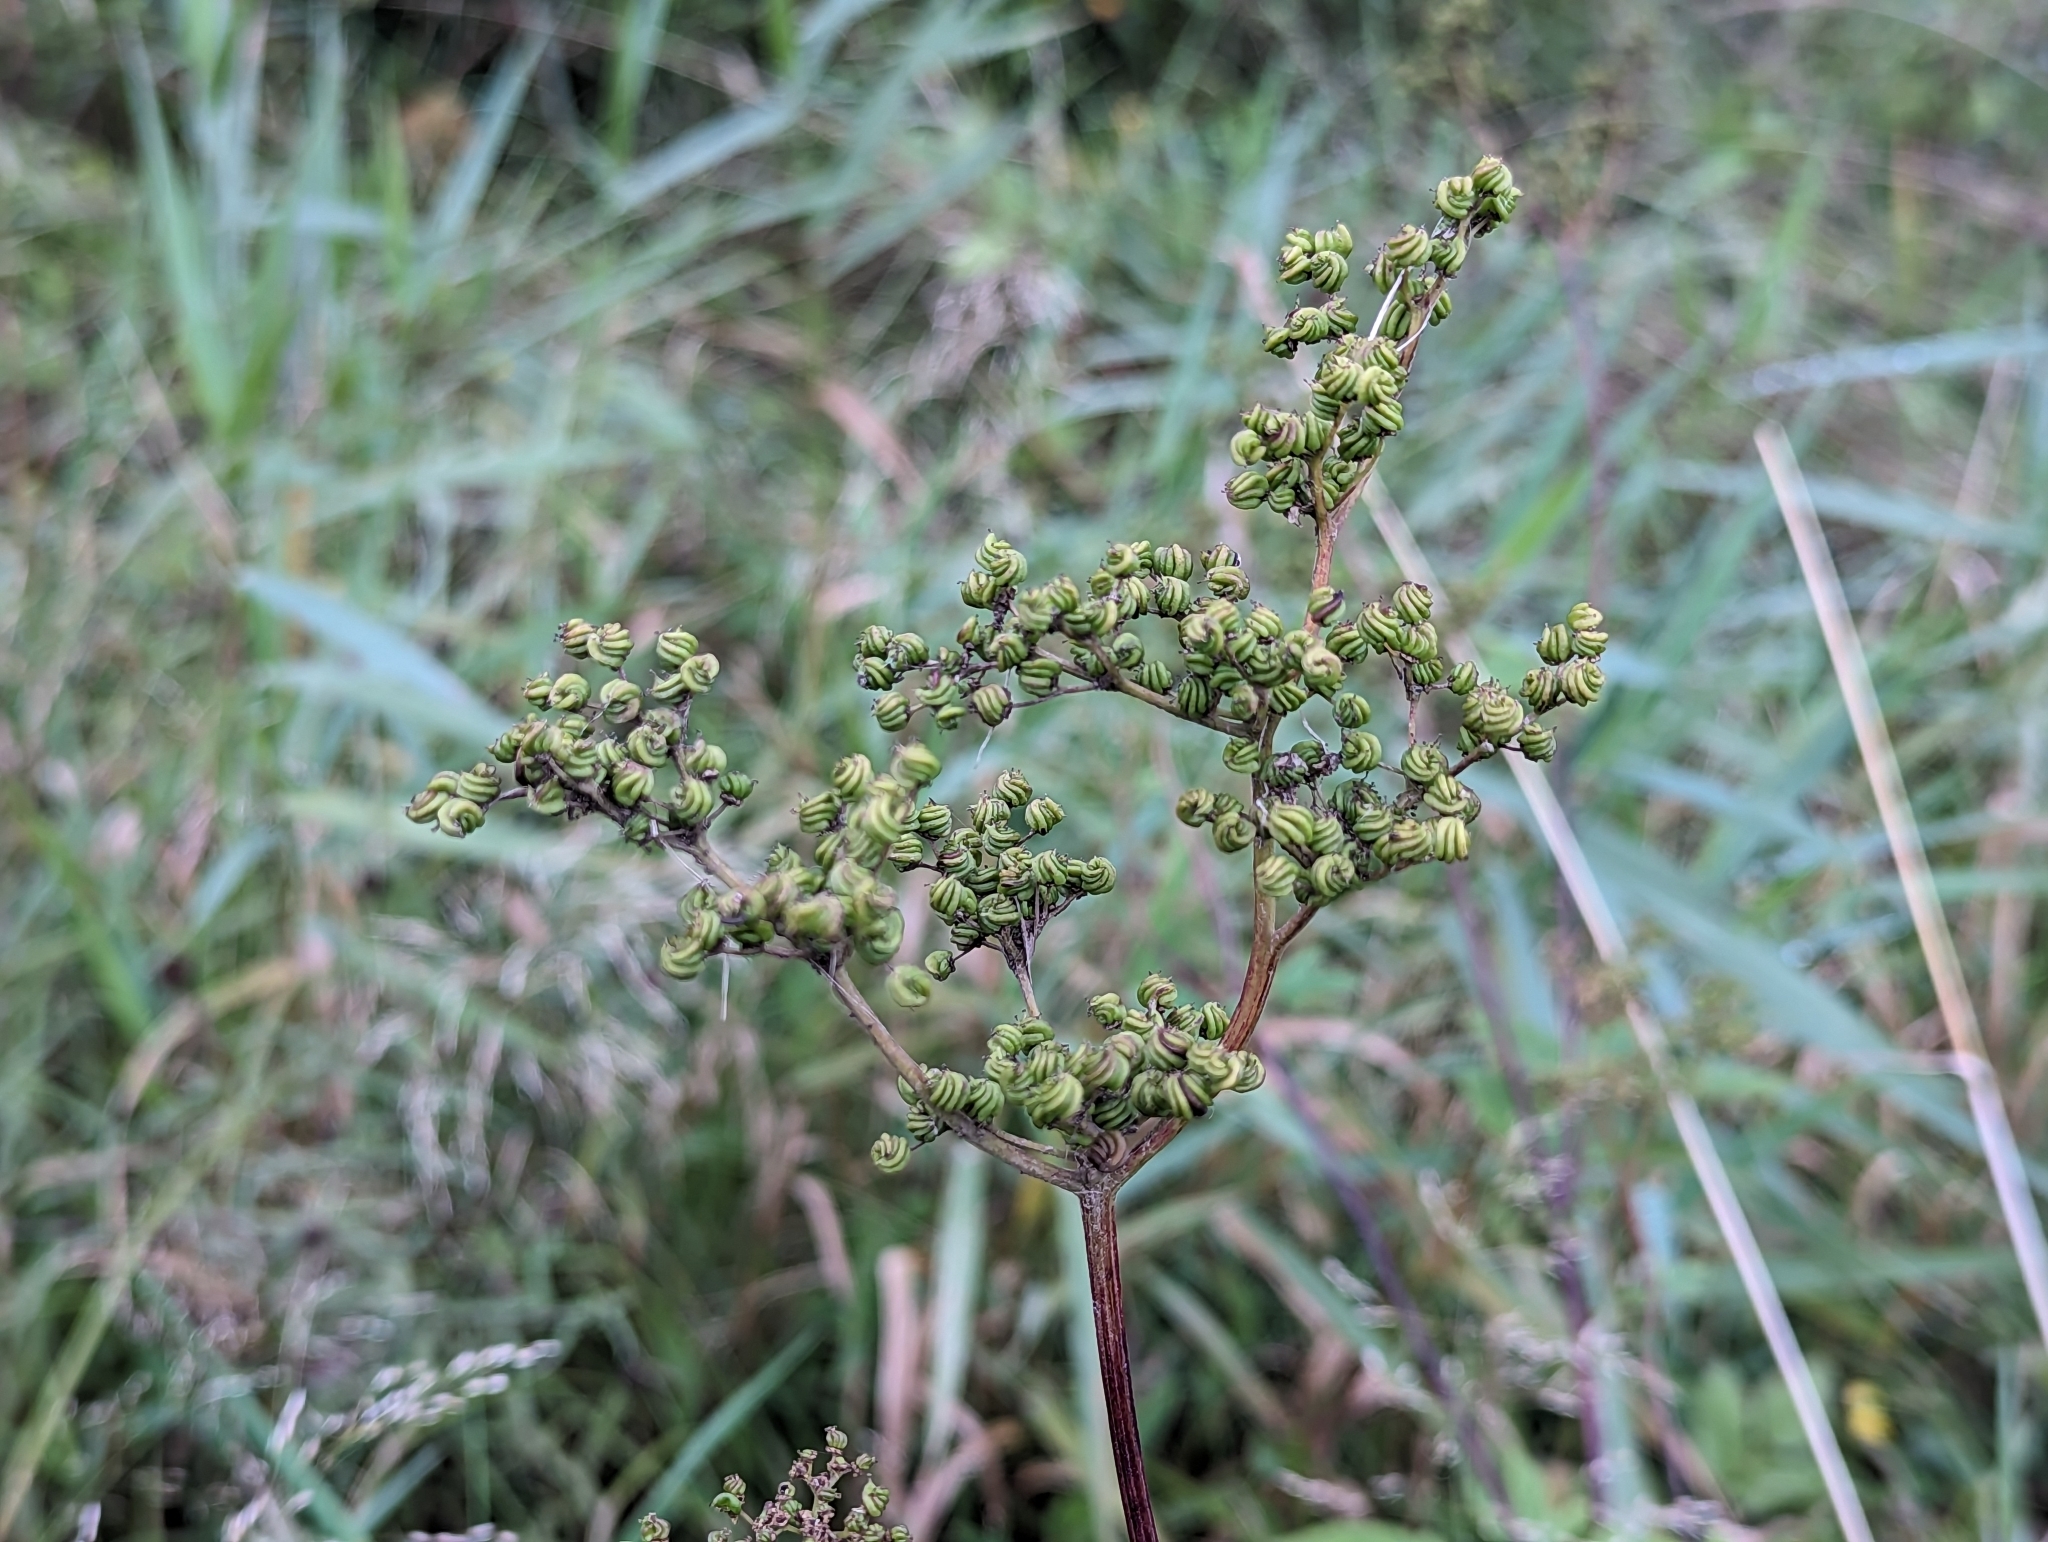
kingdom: Plantae
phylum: Tracheophyta
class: Magnoliopsida
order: Rosales
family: Rosaceae
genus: Filipendula
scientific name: Filipendula ulmaria
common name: Meadowsweet
